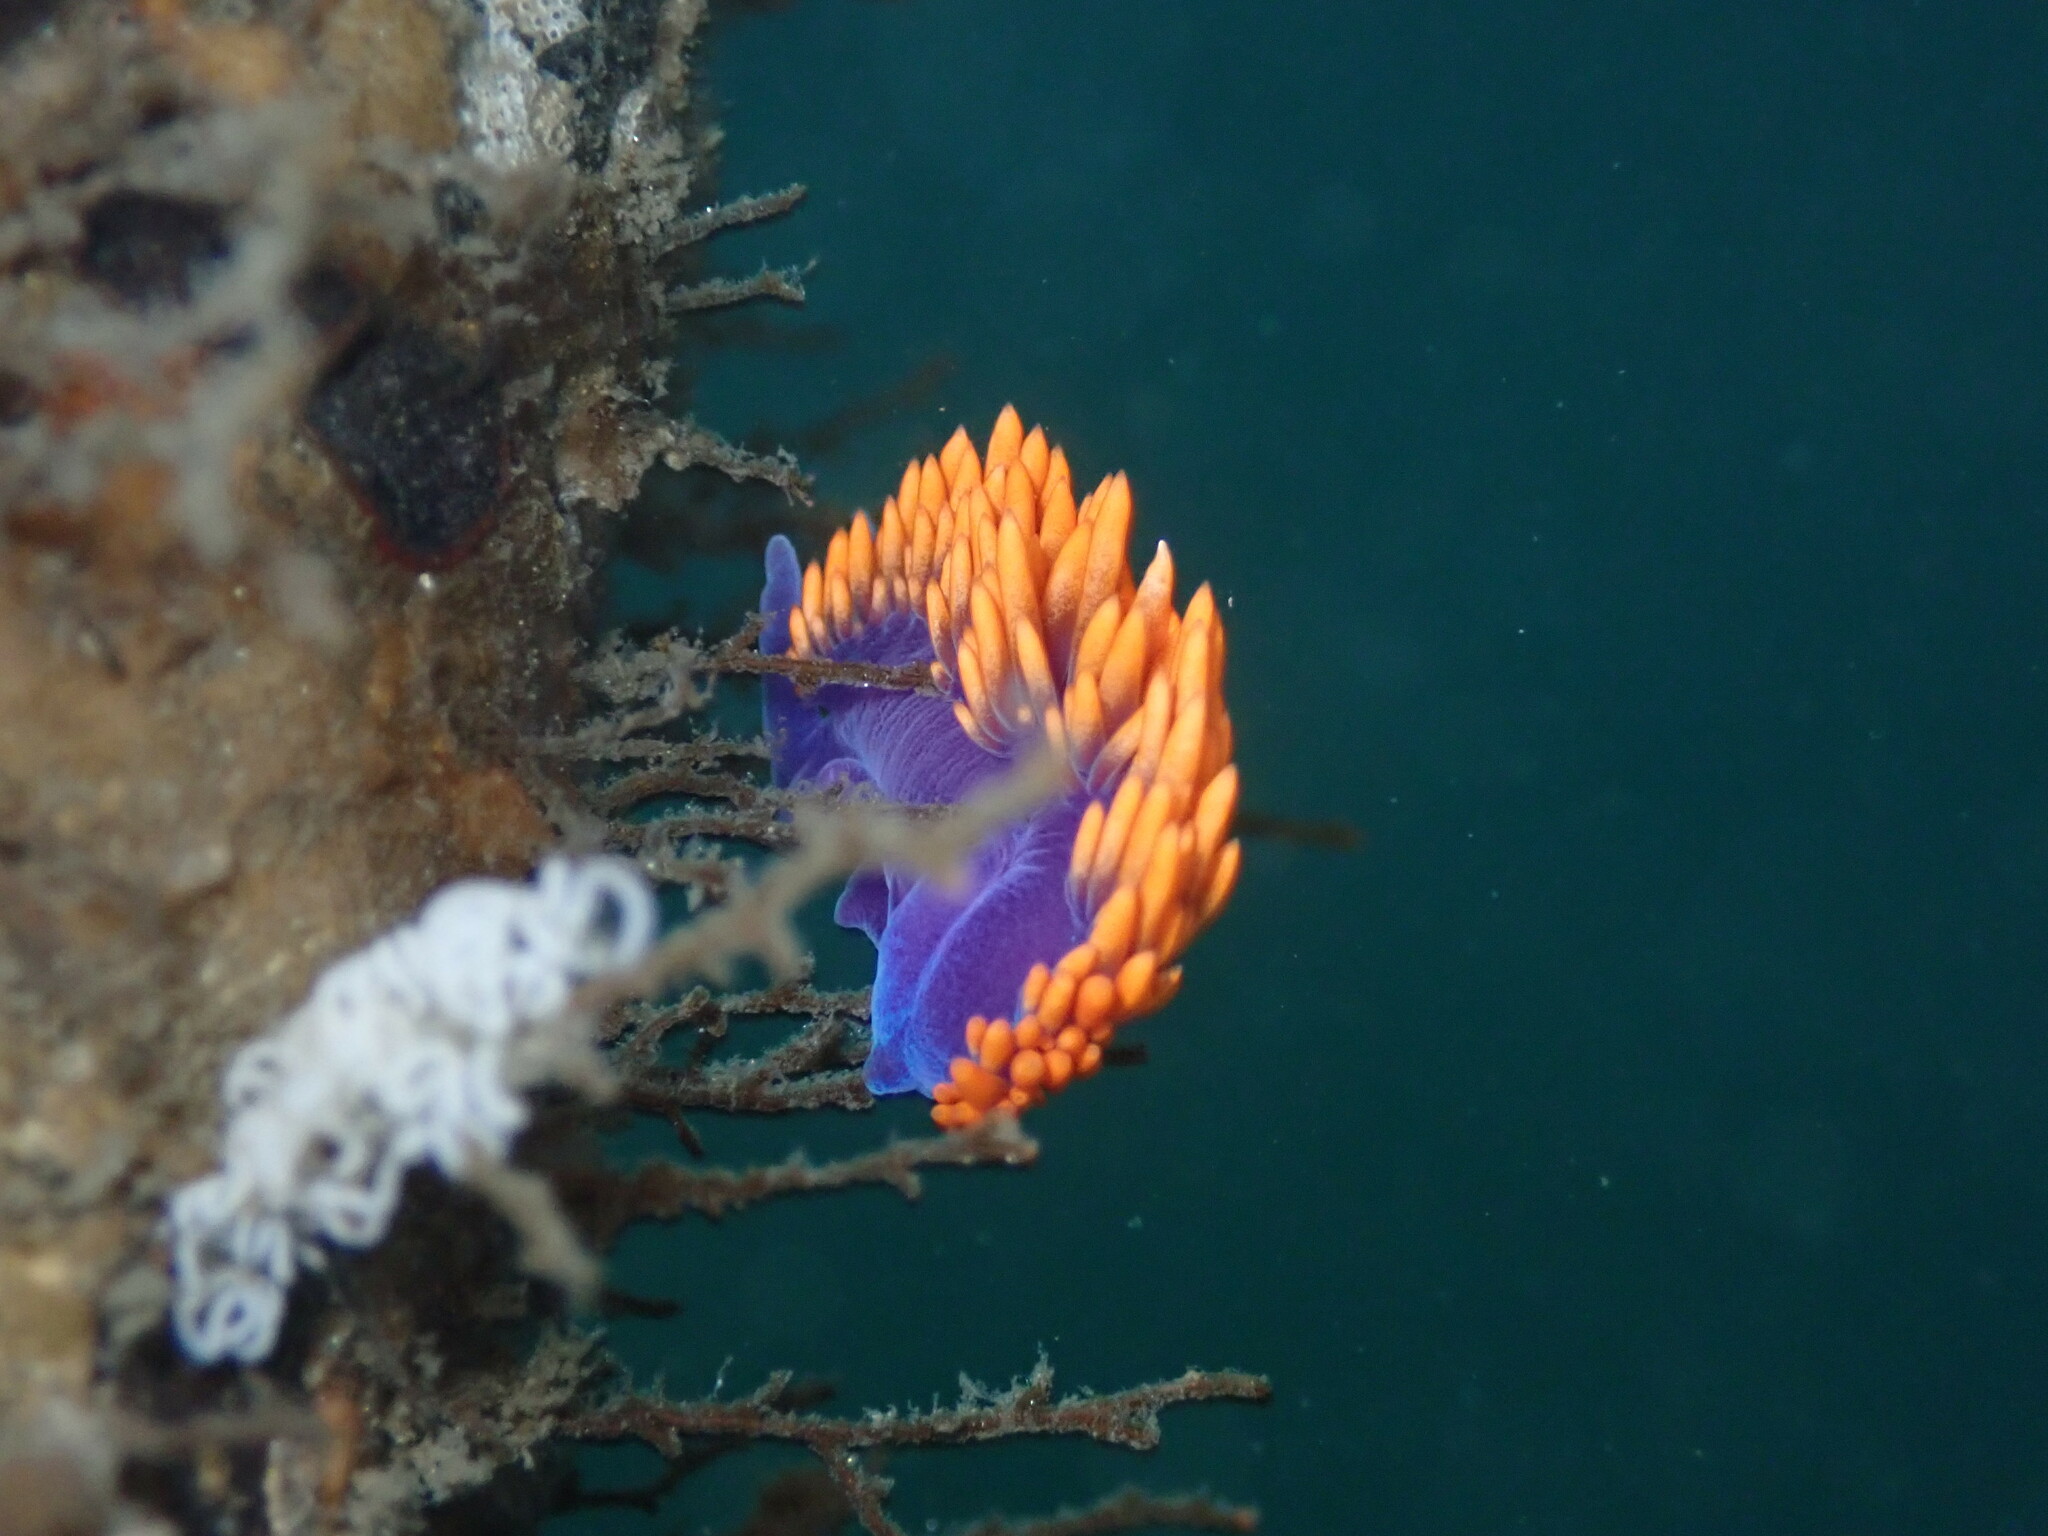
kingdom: Animalia
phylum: Mollusca
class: Gastropoda
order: Nudibranchia
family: Flabellinopsidae
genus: Flabellinopsis
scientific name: Flabellinopsis iodinea
